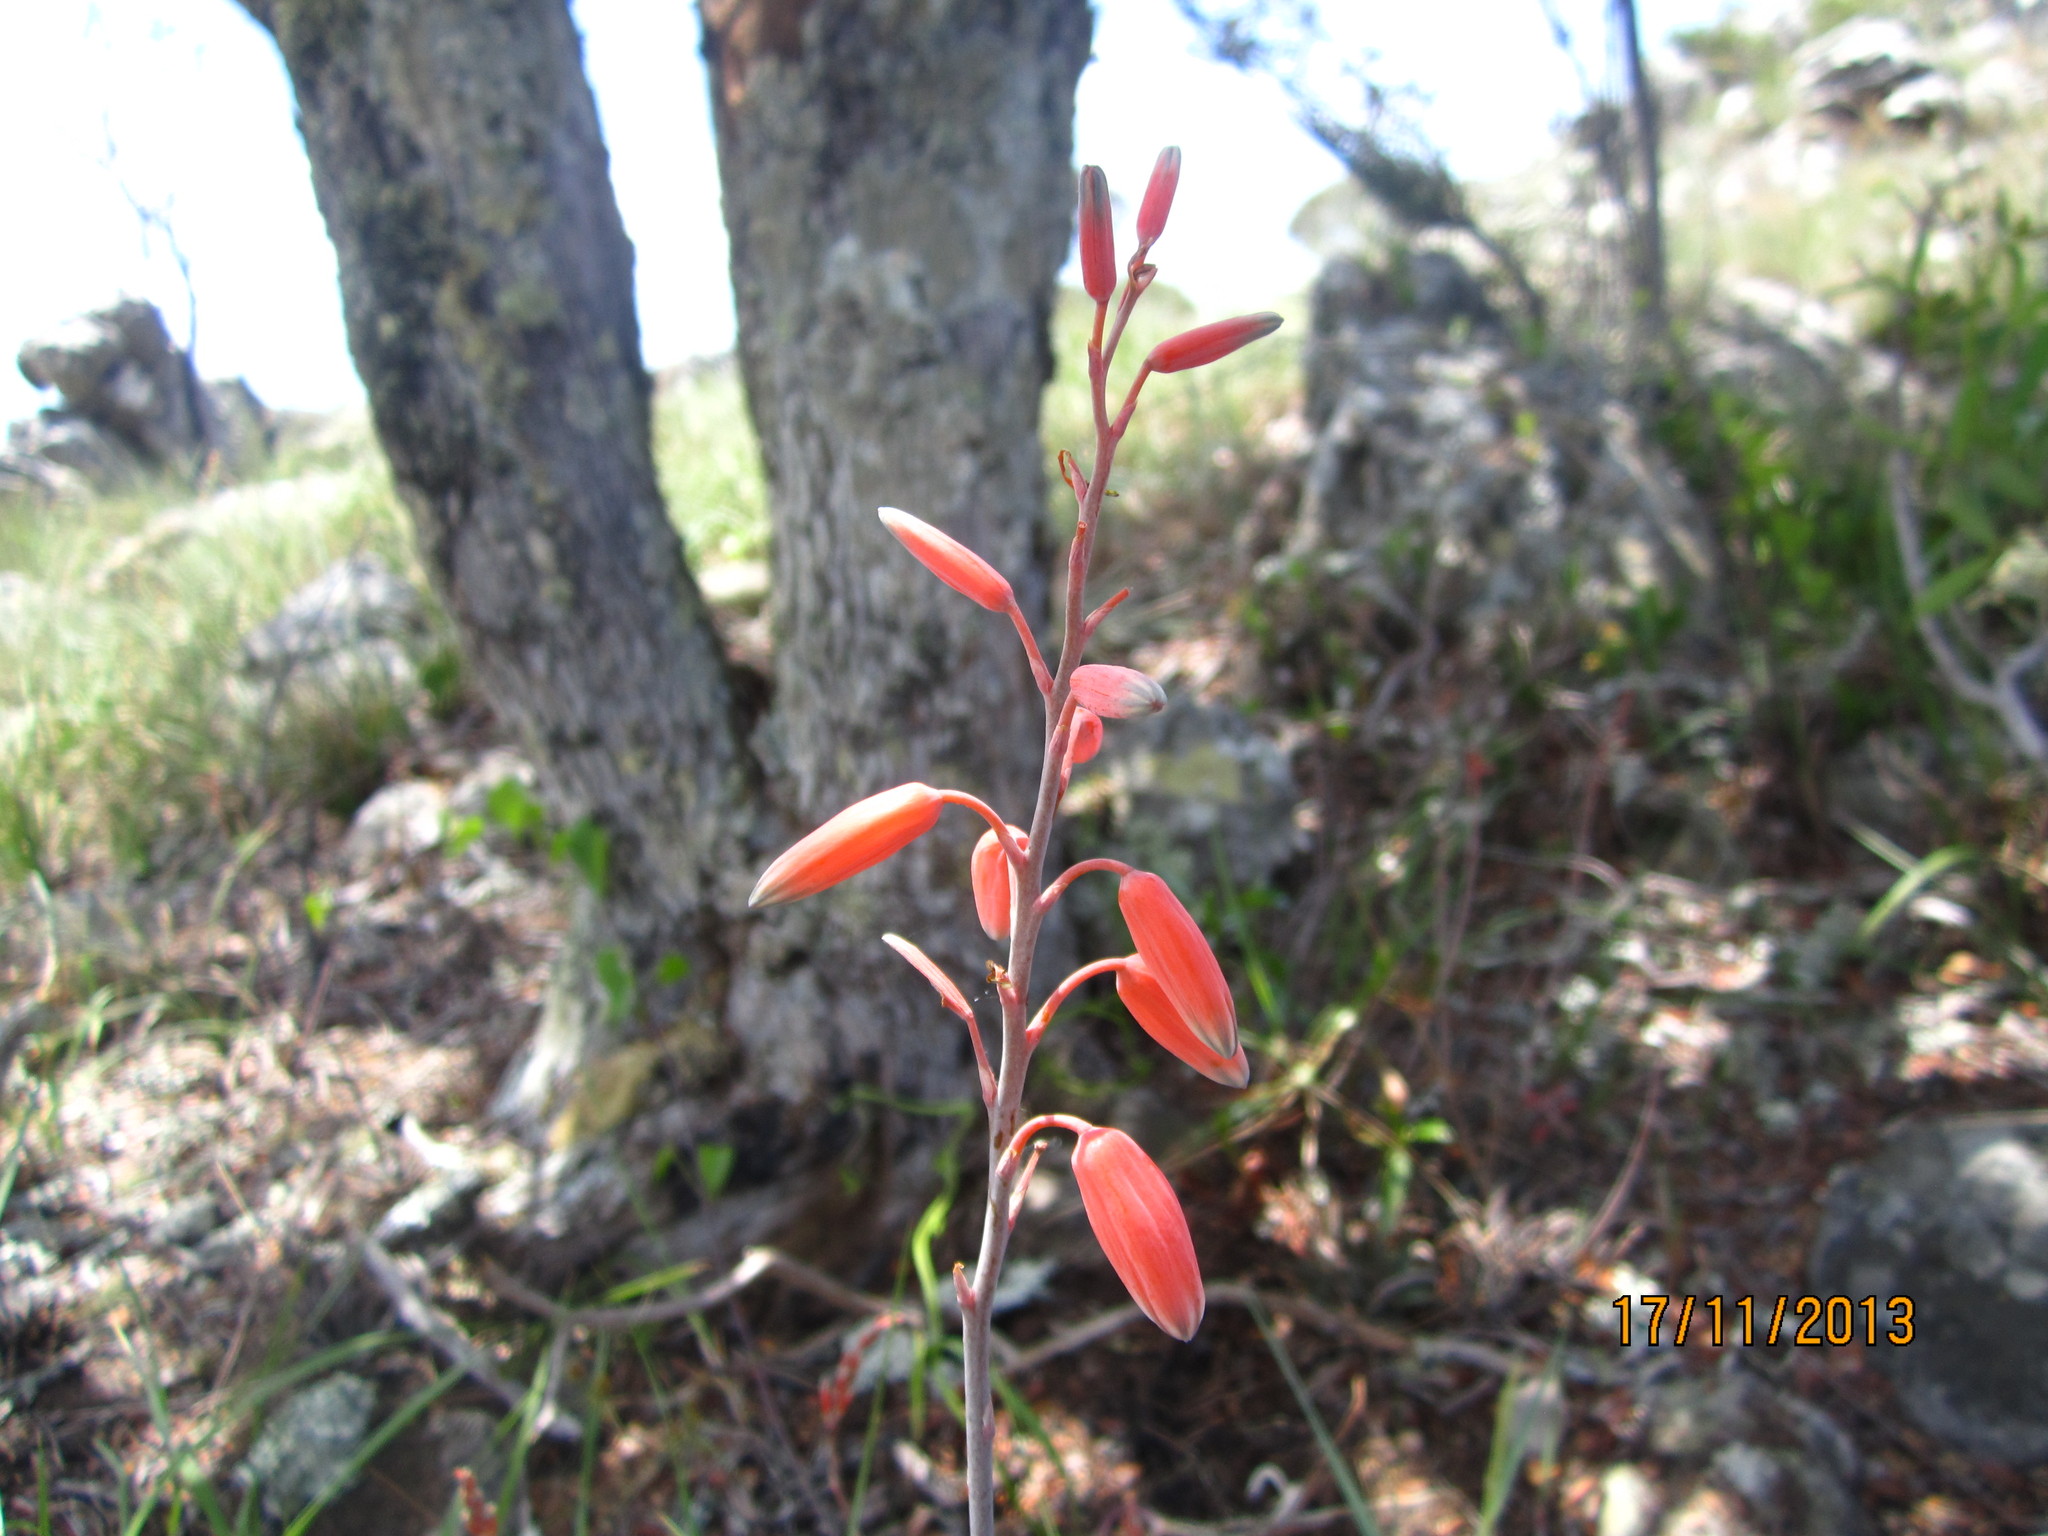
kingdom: Plantae
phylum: Tracheophyta
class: Liliopsida
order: Asparagales
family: Asphodelaceae
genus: Aloe
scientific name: Aloe parvula
